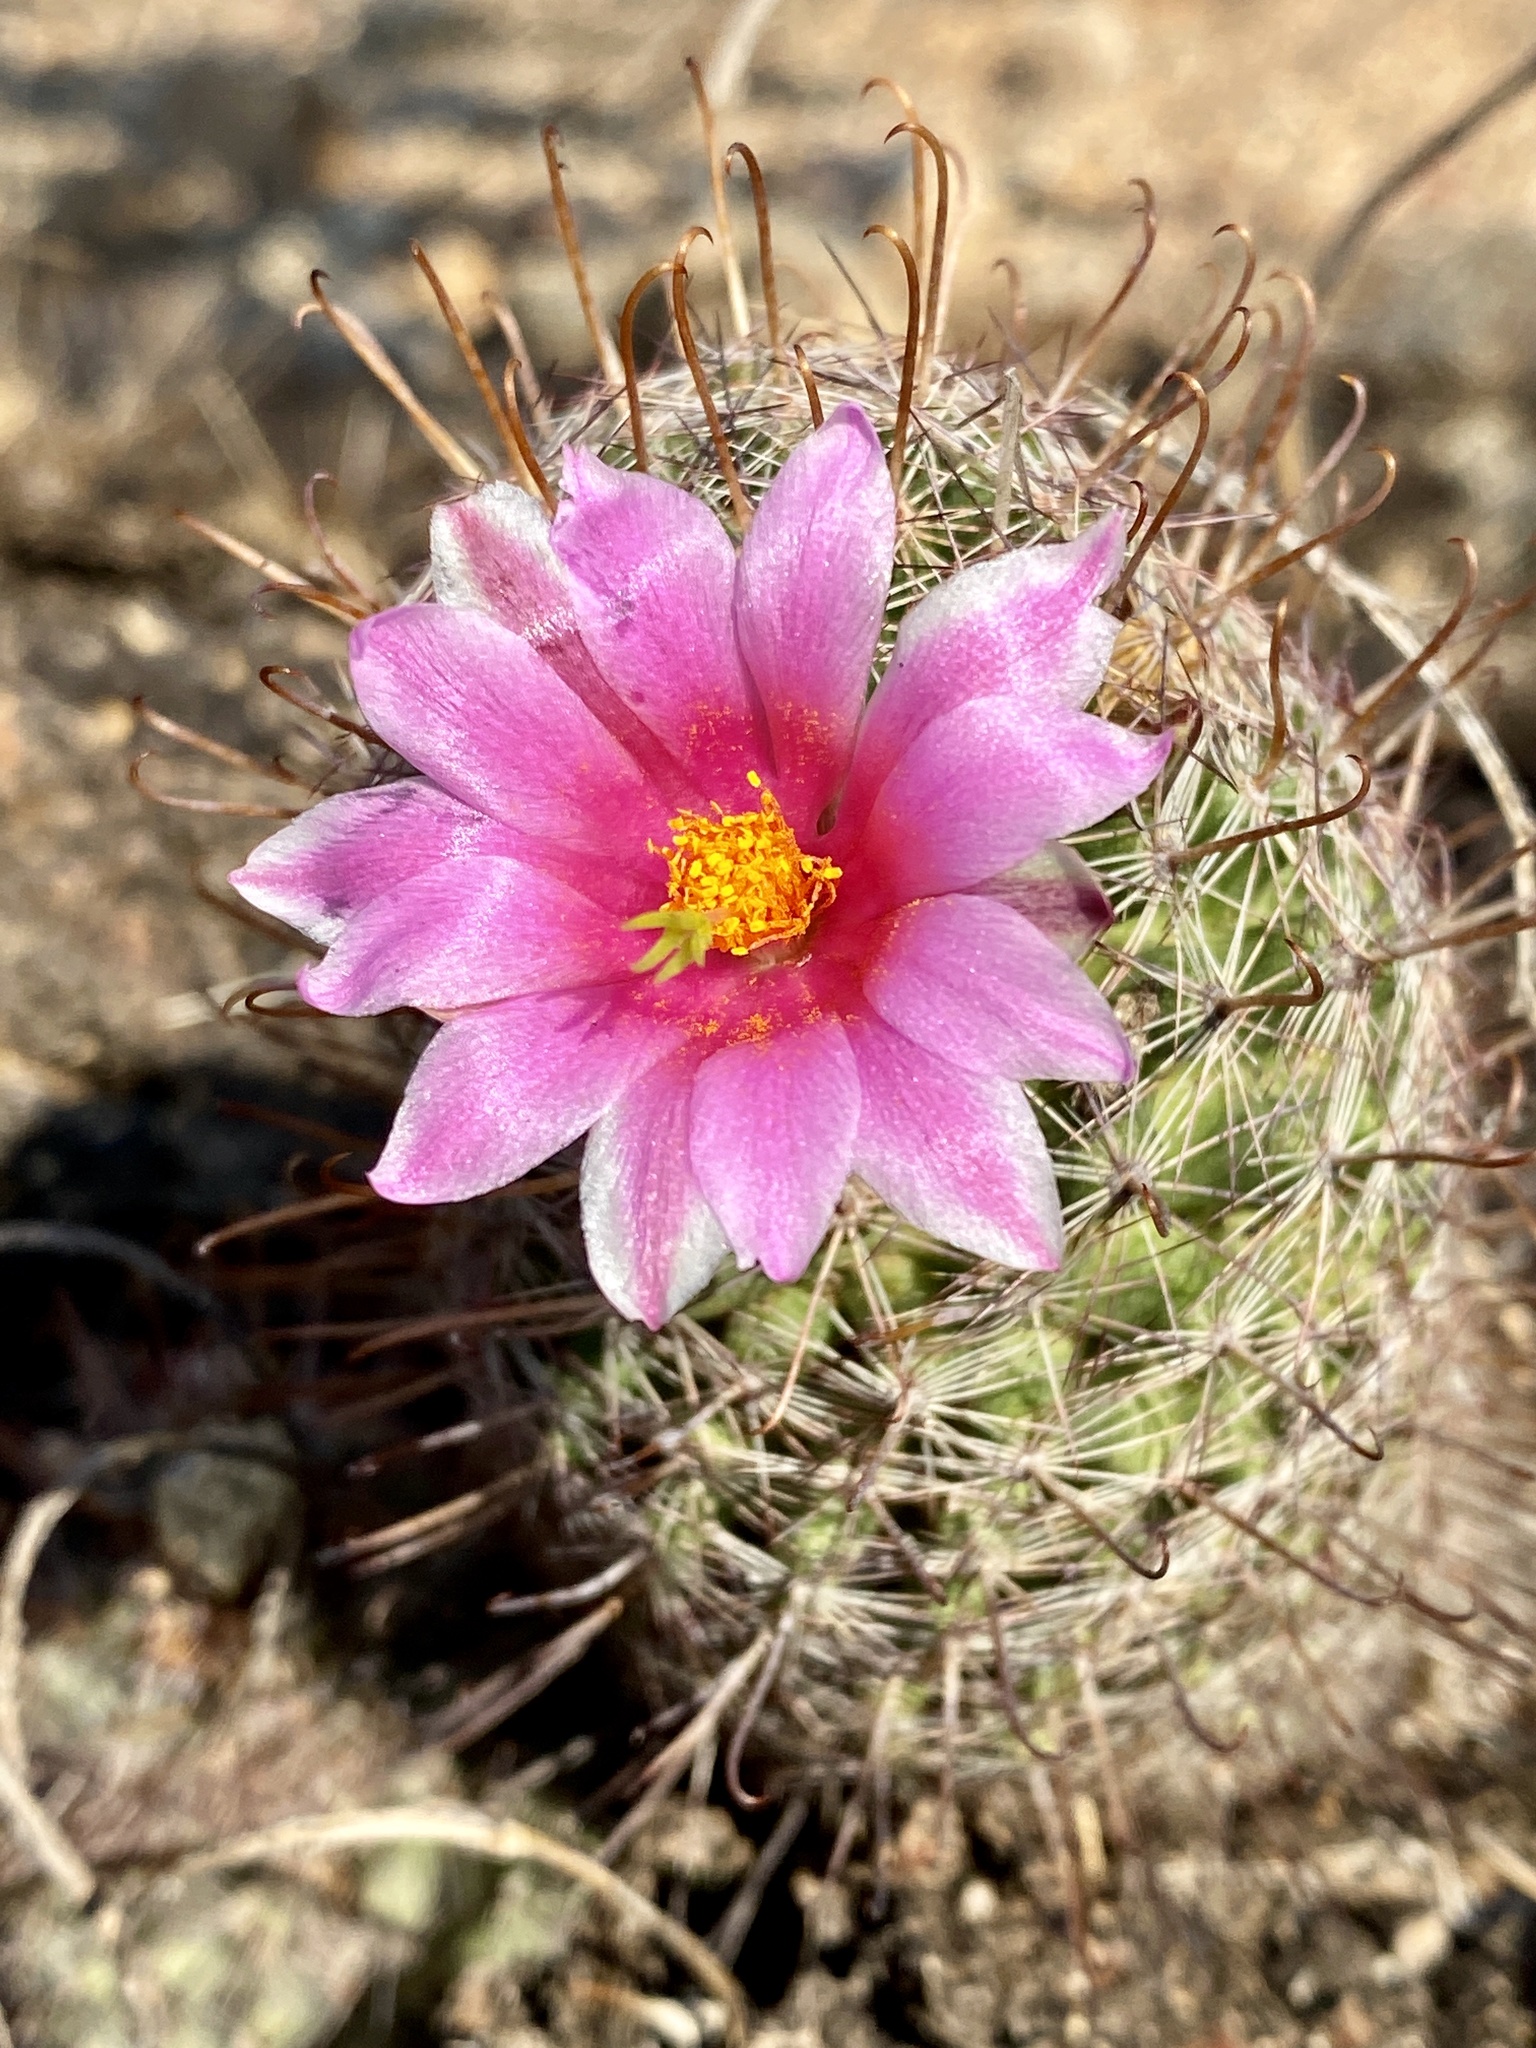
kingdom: Plantae
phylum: Tracheophyta
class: Magnoliopsida
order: Caryophyllales
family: Cactaceae
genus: Cochemiea
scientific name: Cochemiea grahamii
